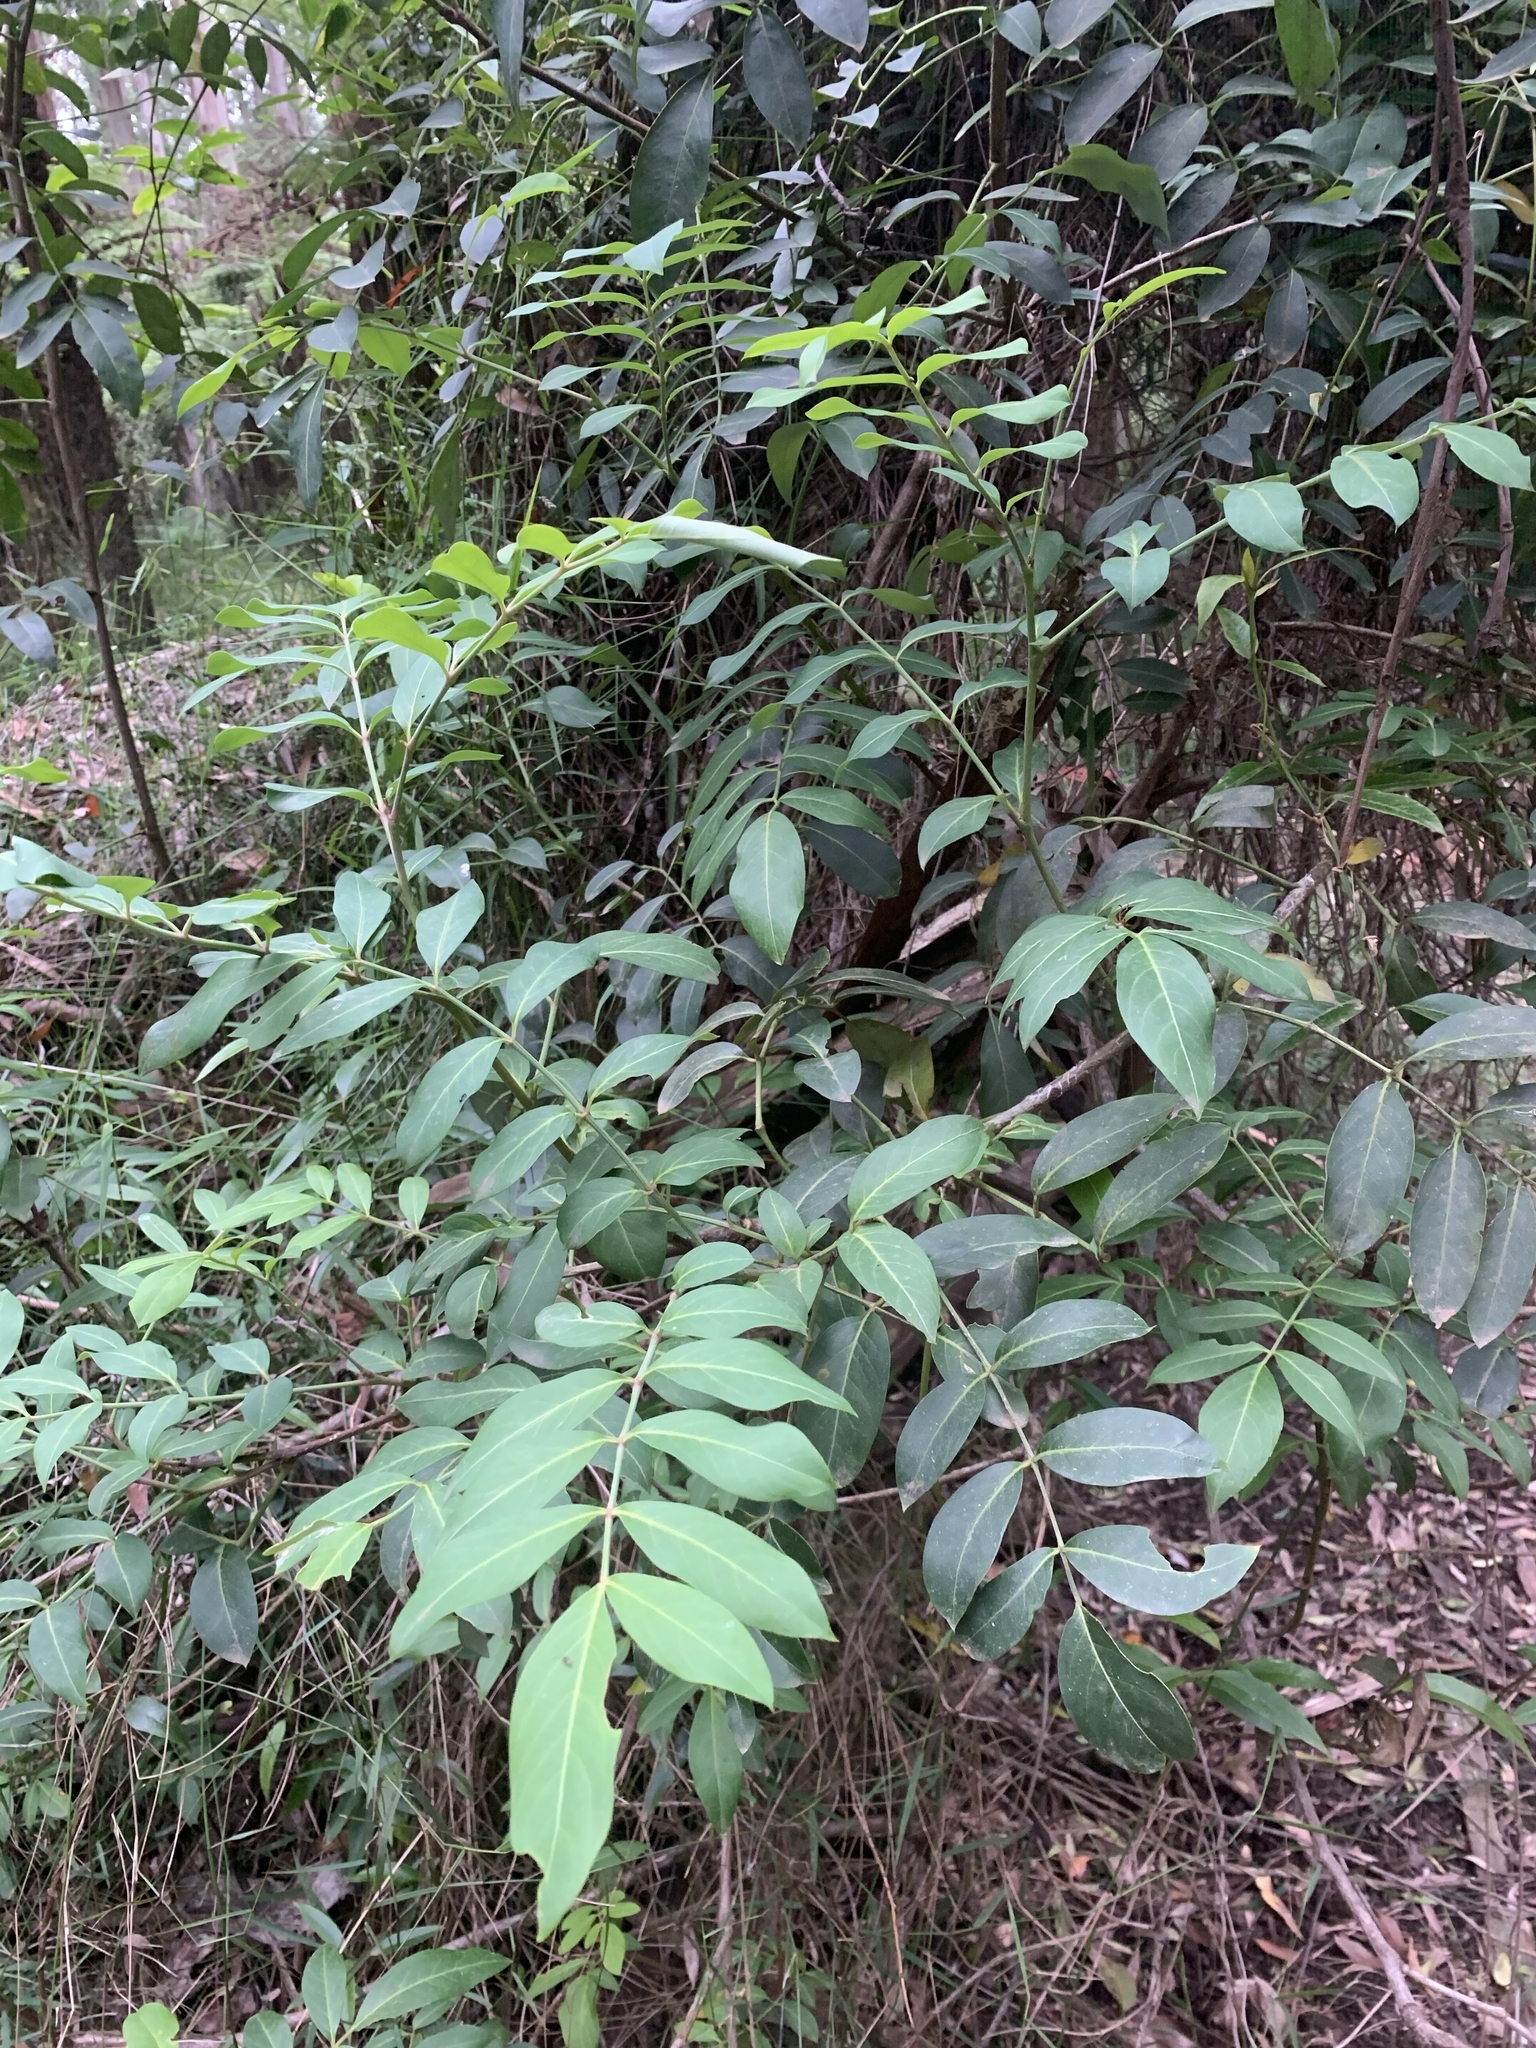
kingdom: Plantae
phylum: Tracheophyta
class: Magnoliopsida
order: Apiales
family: Araliaceae
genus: Polyscias
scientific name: Polyscias sambucifolia
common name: Elderberry-ash
